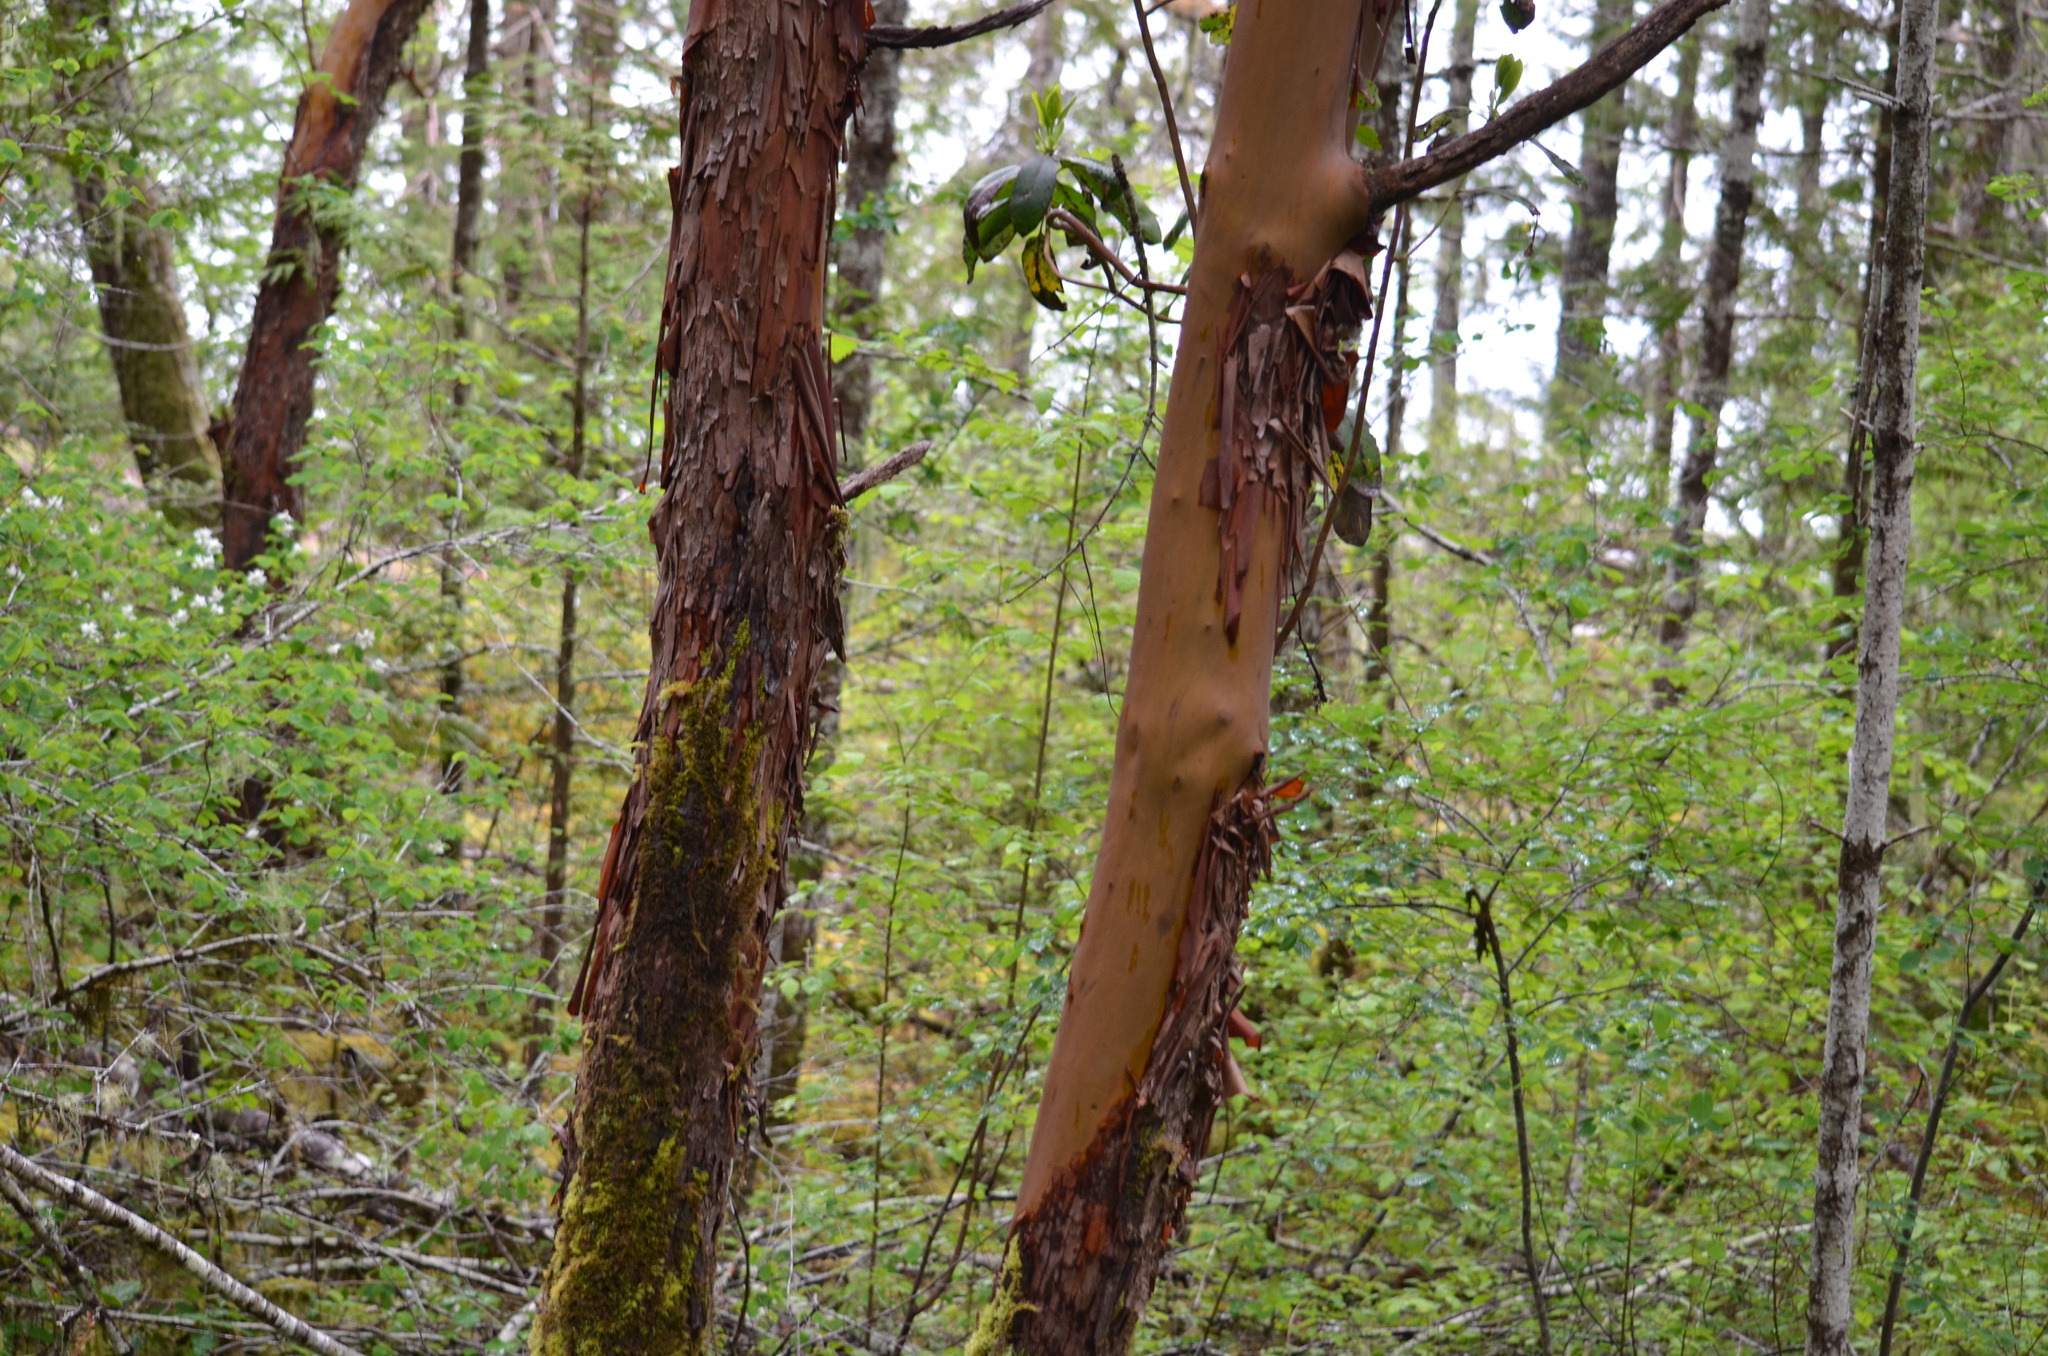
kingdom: Plantae
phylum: Tracheophyta
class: Magnoliopsida
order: Ericales
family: Ericaceae
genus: Arbutus
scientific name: Arbutus menziesii
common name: Pacific madrone
